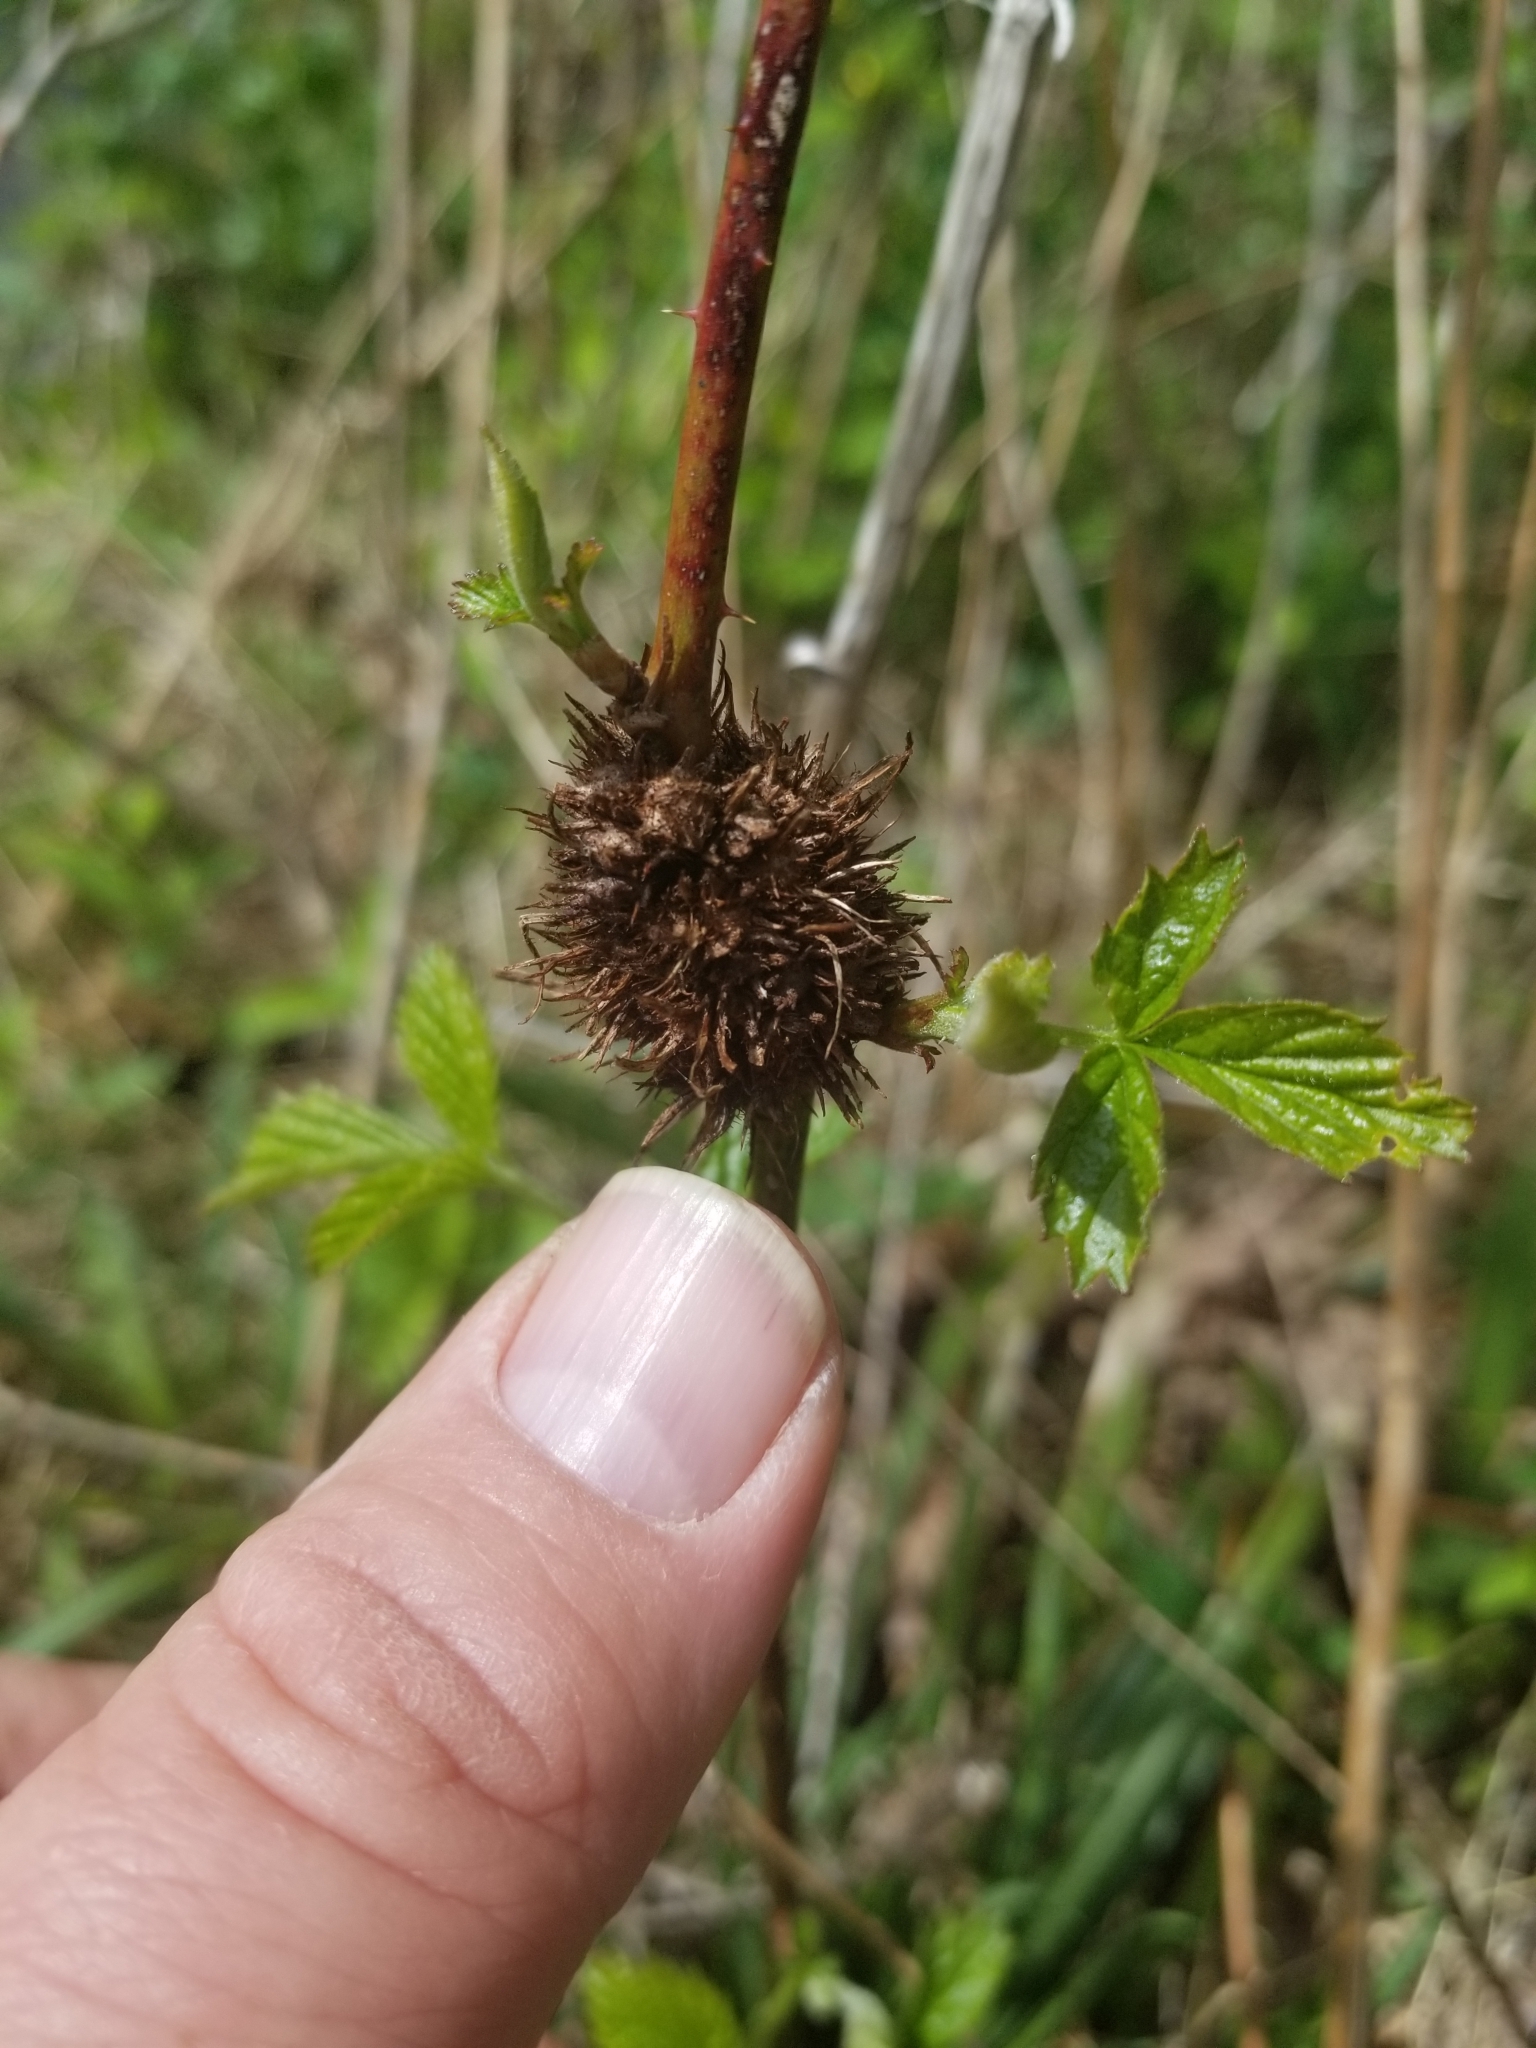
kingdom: Animalia
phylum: Arthropoda
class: Insecta
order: Hymenoptera
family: Cynipidae
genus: Diastrophus
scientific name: Diastrophus
